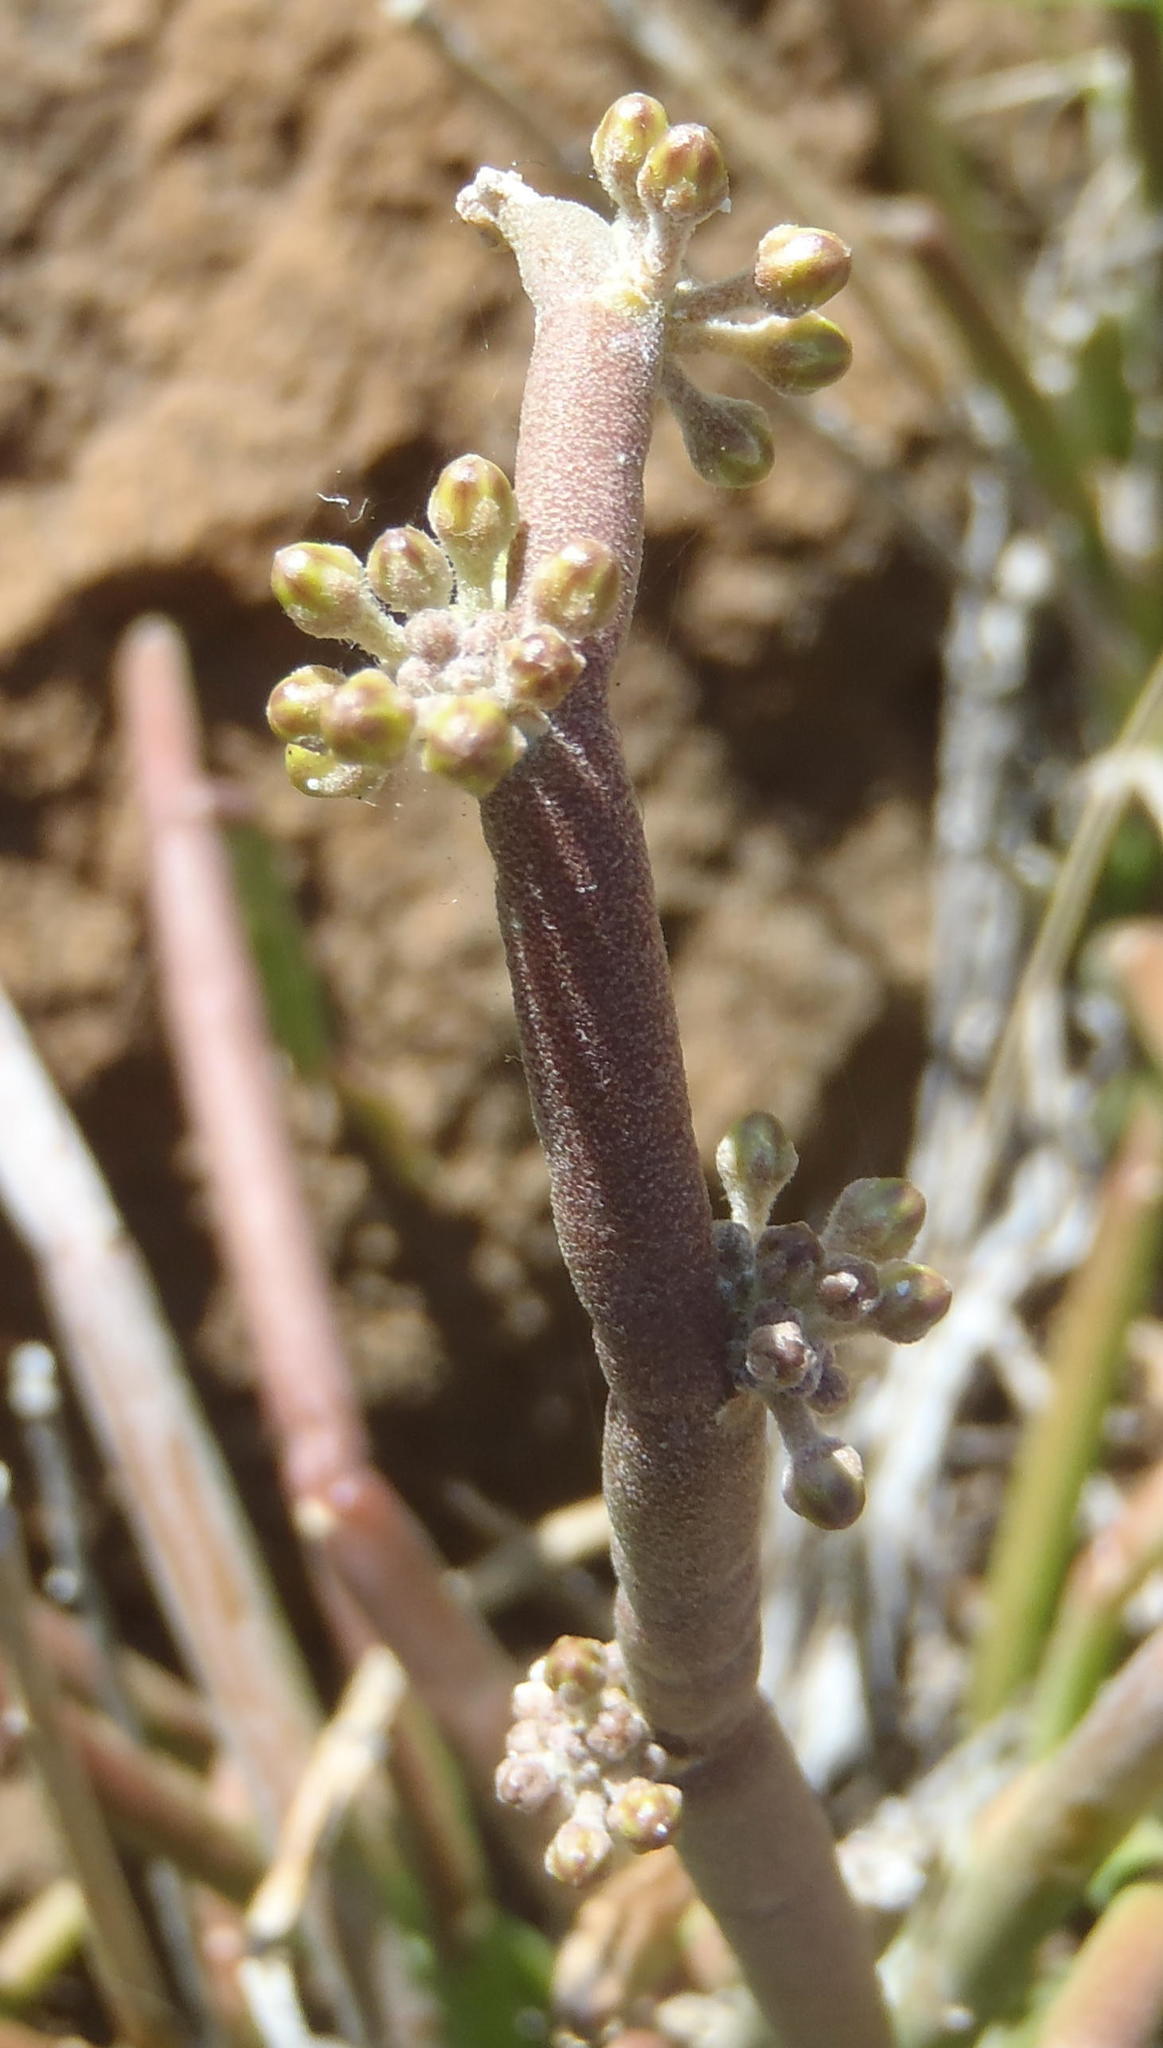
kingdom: Plantae
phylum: Tracheophyta
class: Magnoliopsida
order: Gentianales
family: Apocynaceae
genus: Cynanchum
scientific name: Cynanchum viminale
